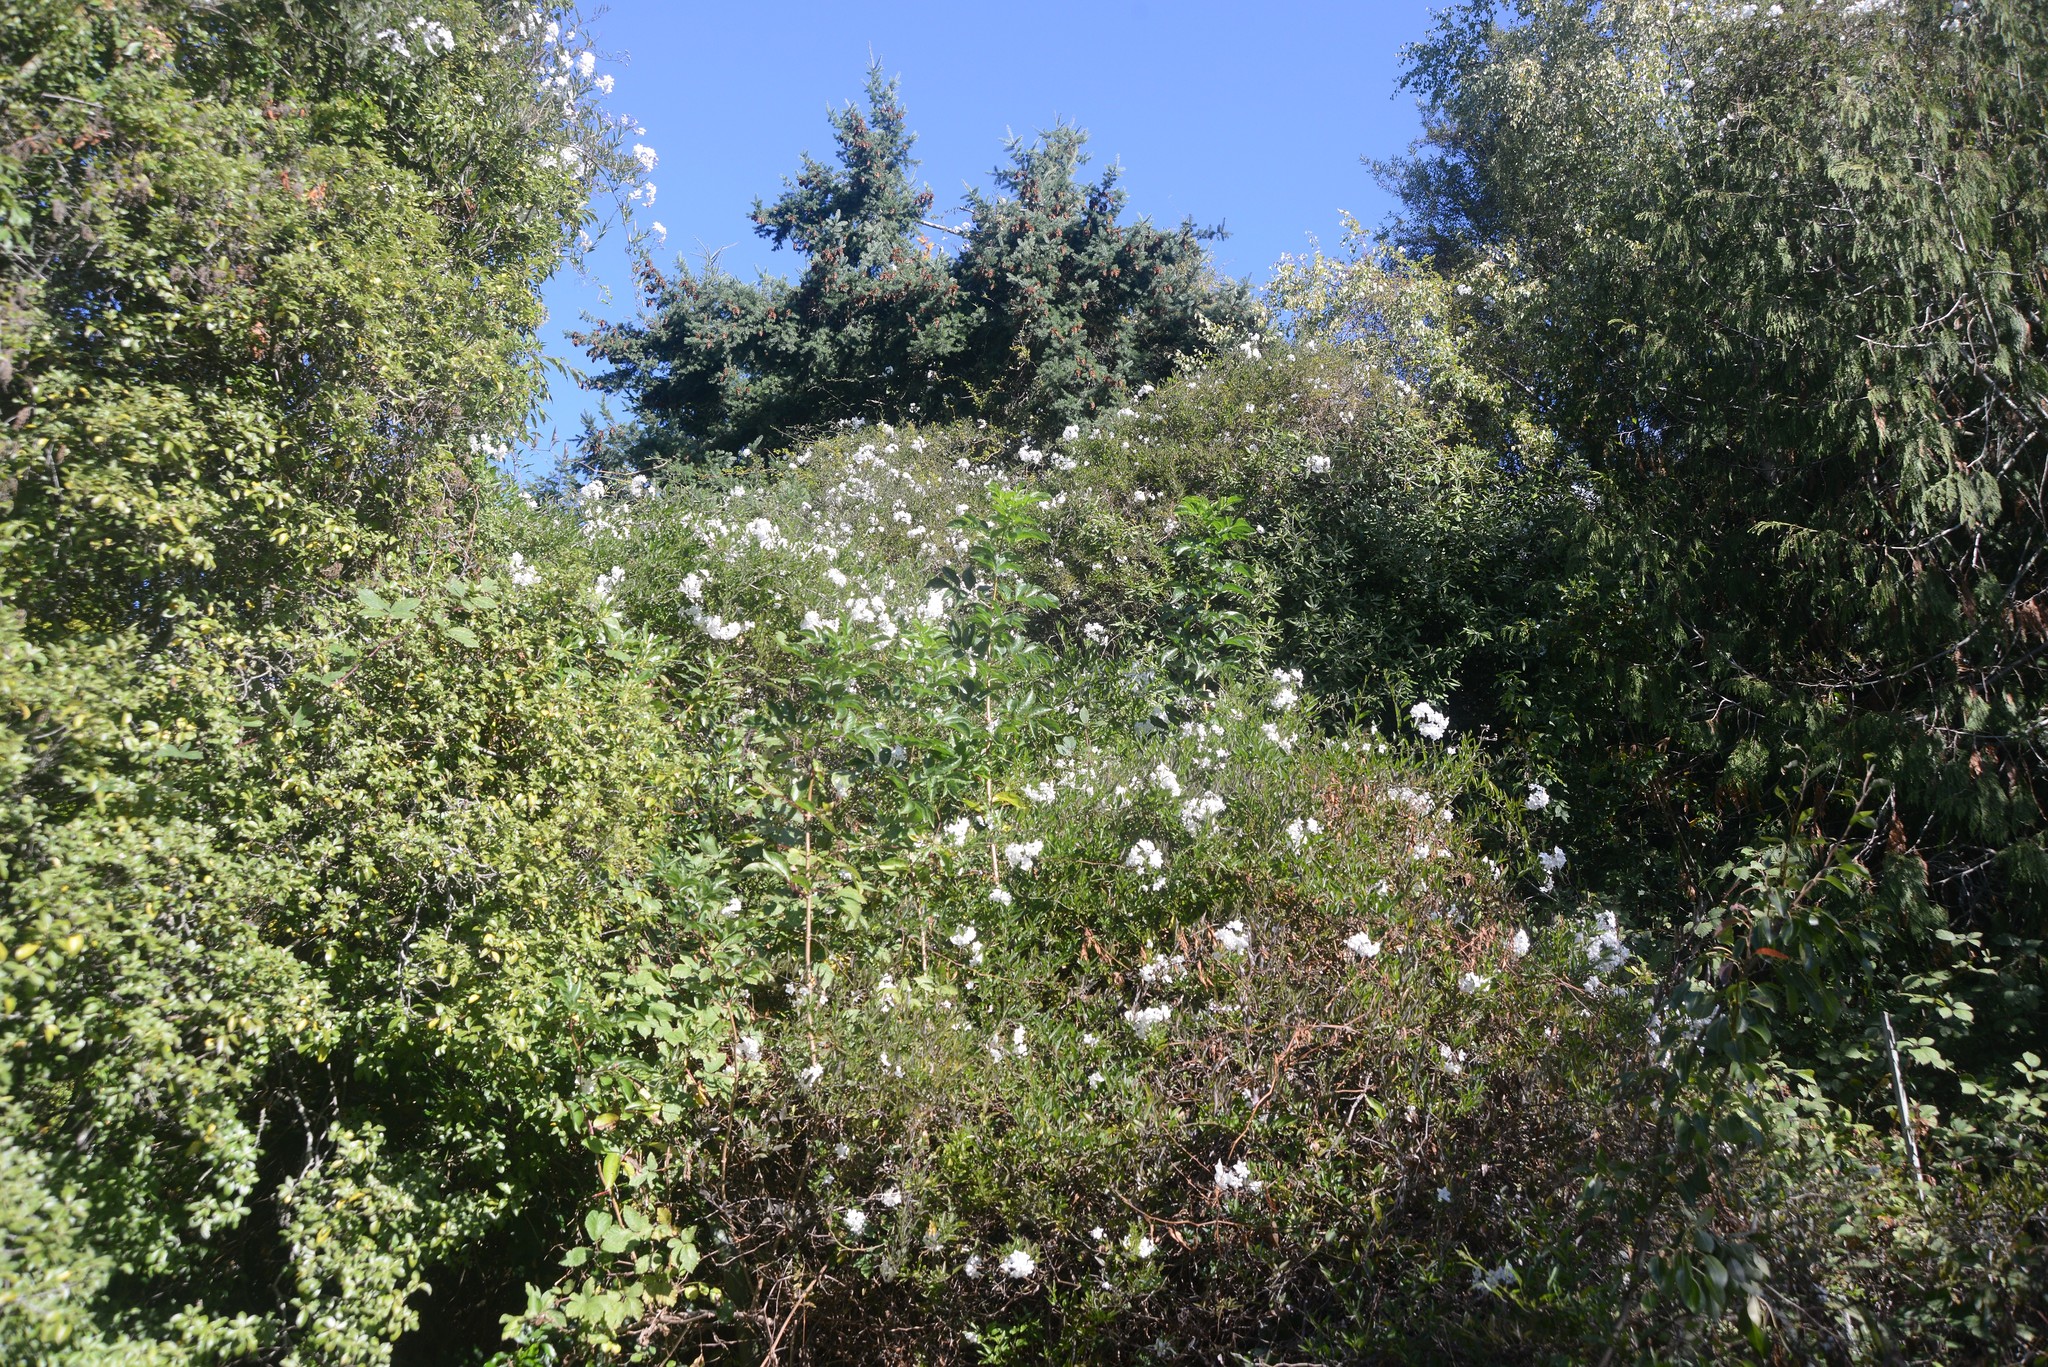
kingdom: Plantae
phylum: Tracheophyta
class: Magnoliopsida
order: Solanales
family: Solanaceae
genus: Solanum
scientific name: Solanum laxum
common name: Nightshade
